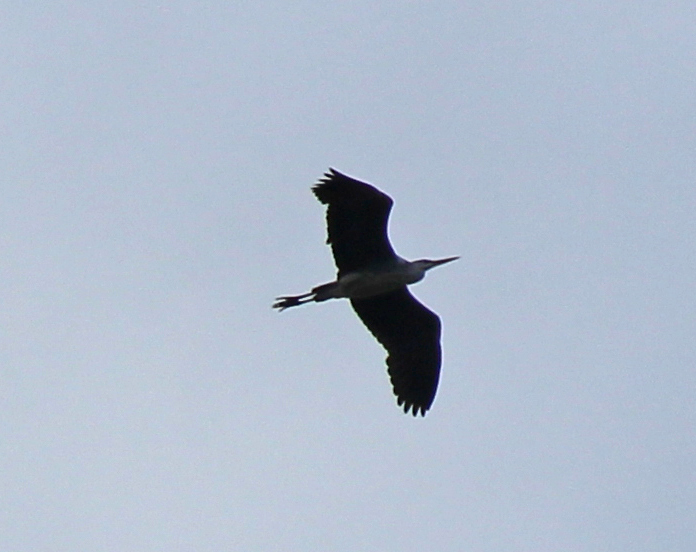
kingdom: Animalia
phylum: Chordata
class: Aves
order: Pelecaniformes
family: Ardeidae
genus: Ardea
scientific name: Ardea cinerea
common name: Grey heron
